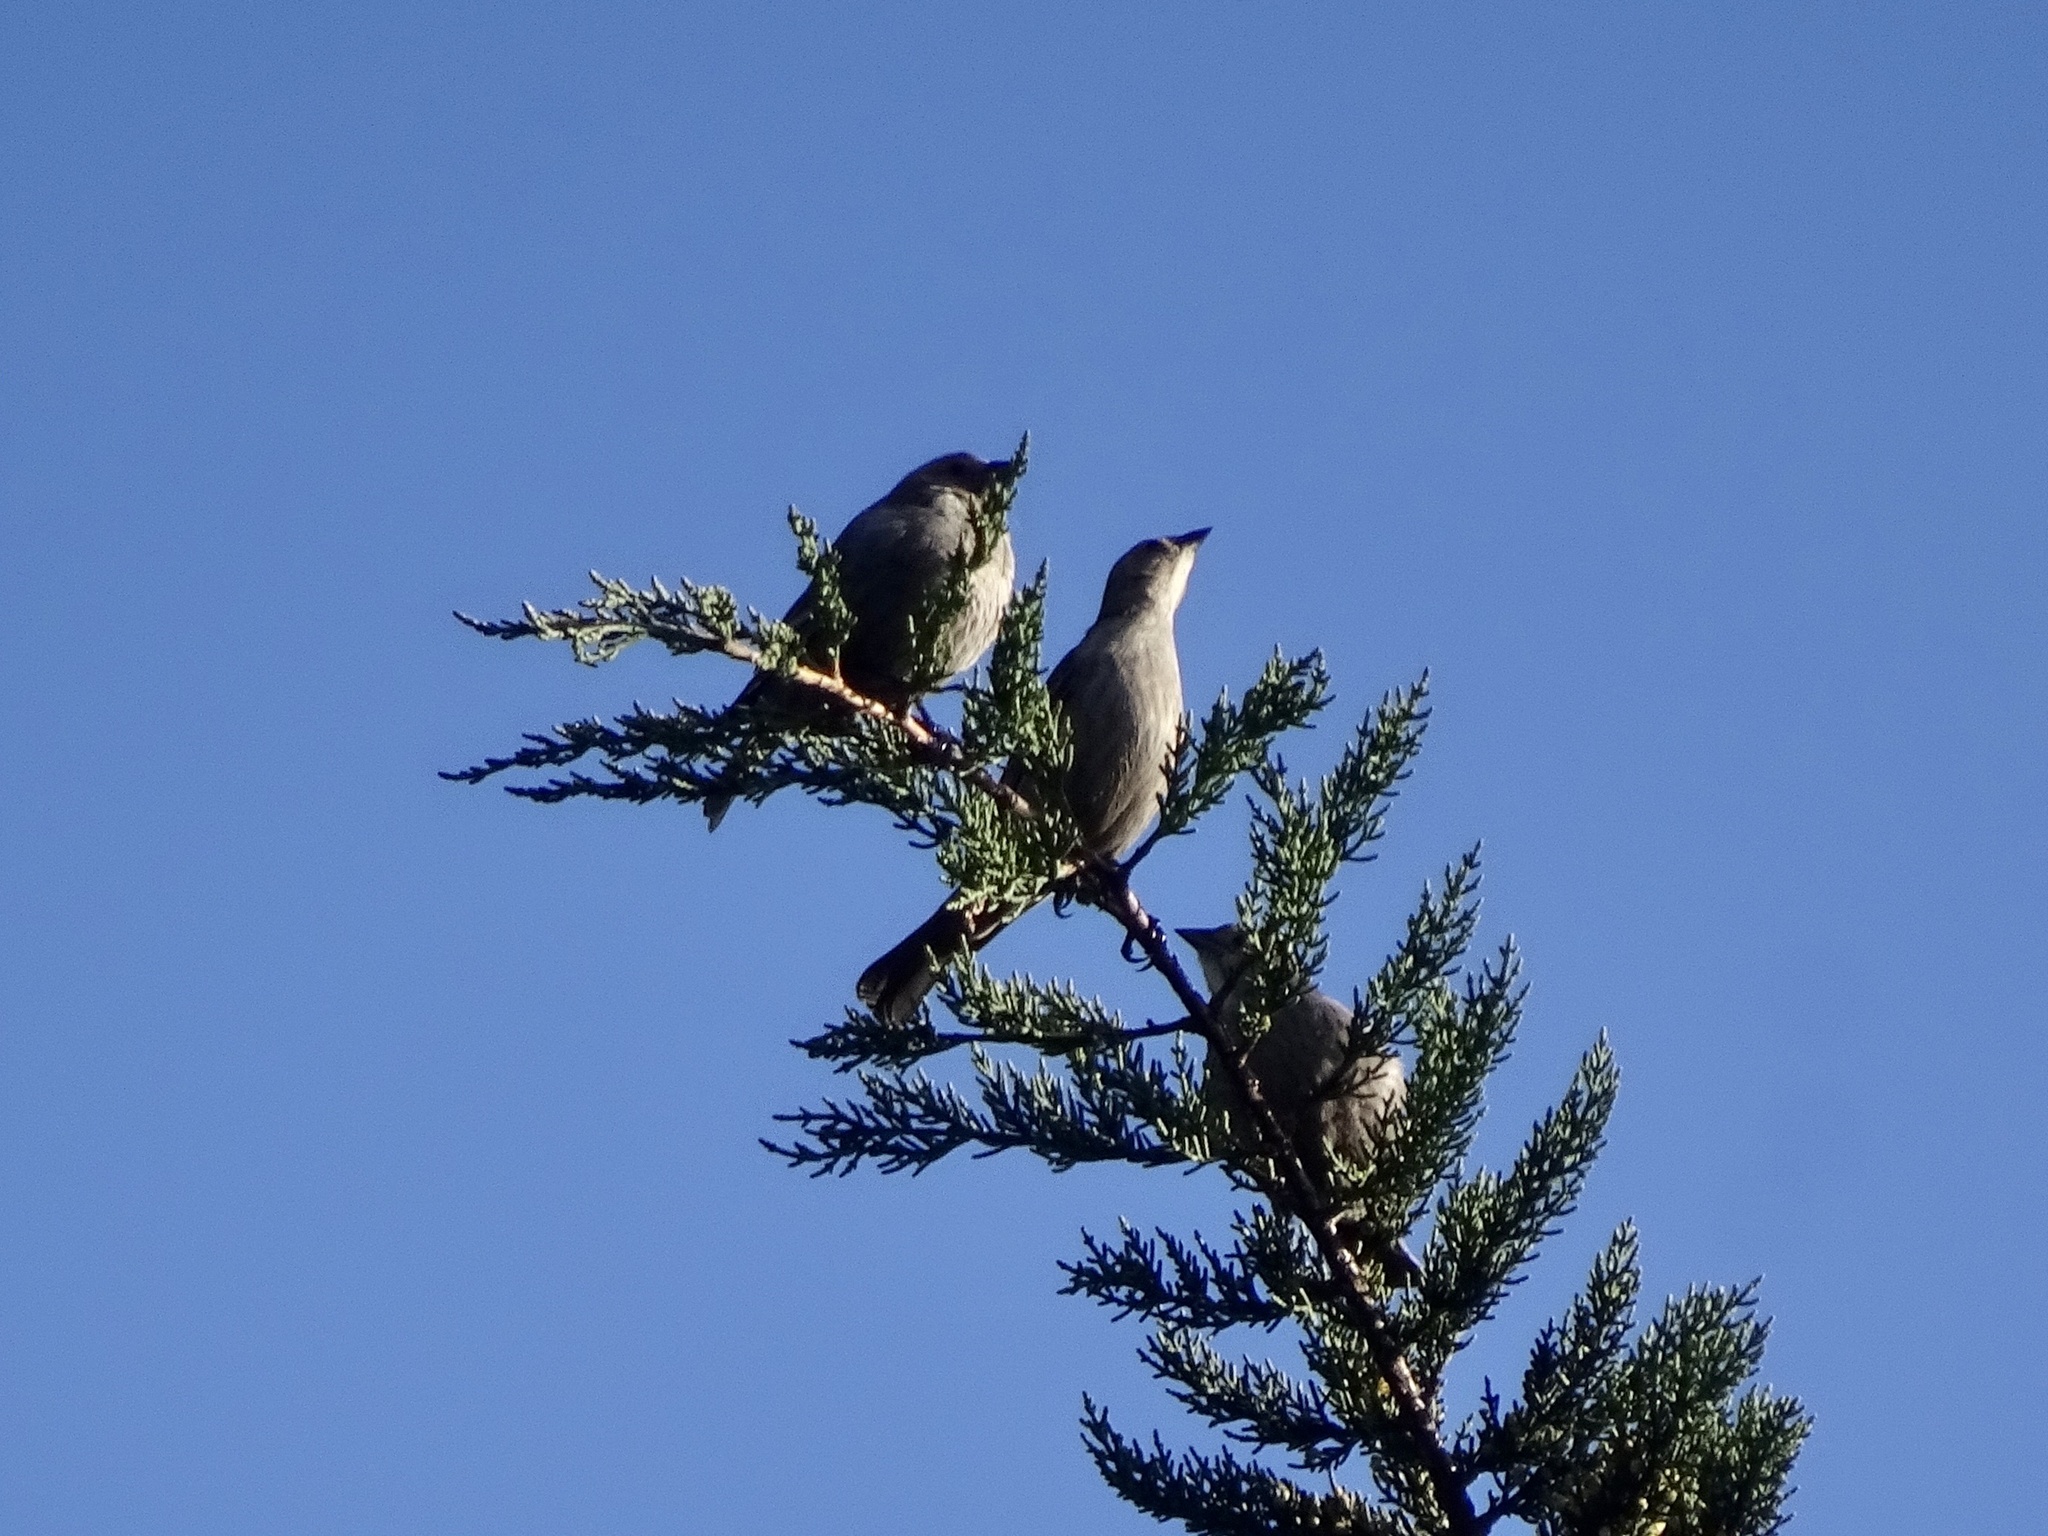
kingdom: Animalia
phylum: Chordata
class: Aves
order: Passeriformes
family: Icteridae
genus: Molothrus
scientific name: Molothrus ater
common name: Brown-headed cowbird
